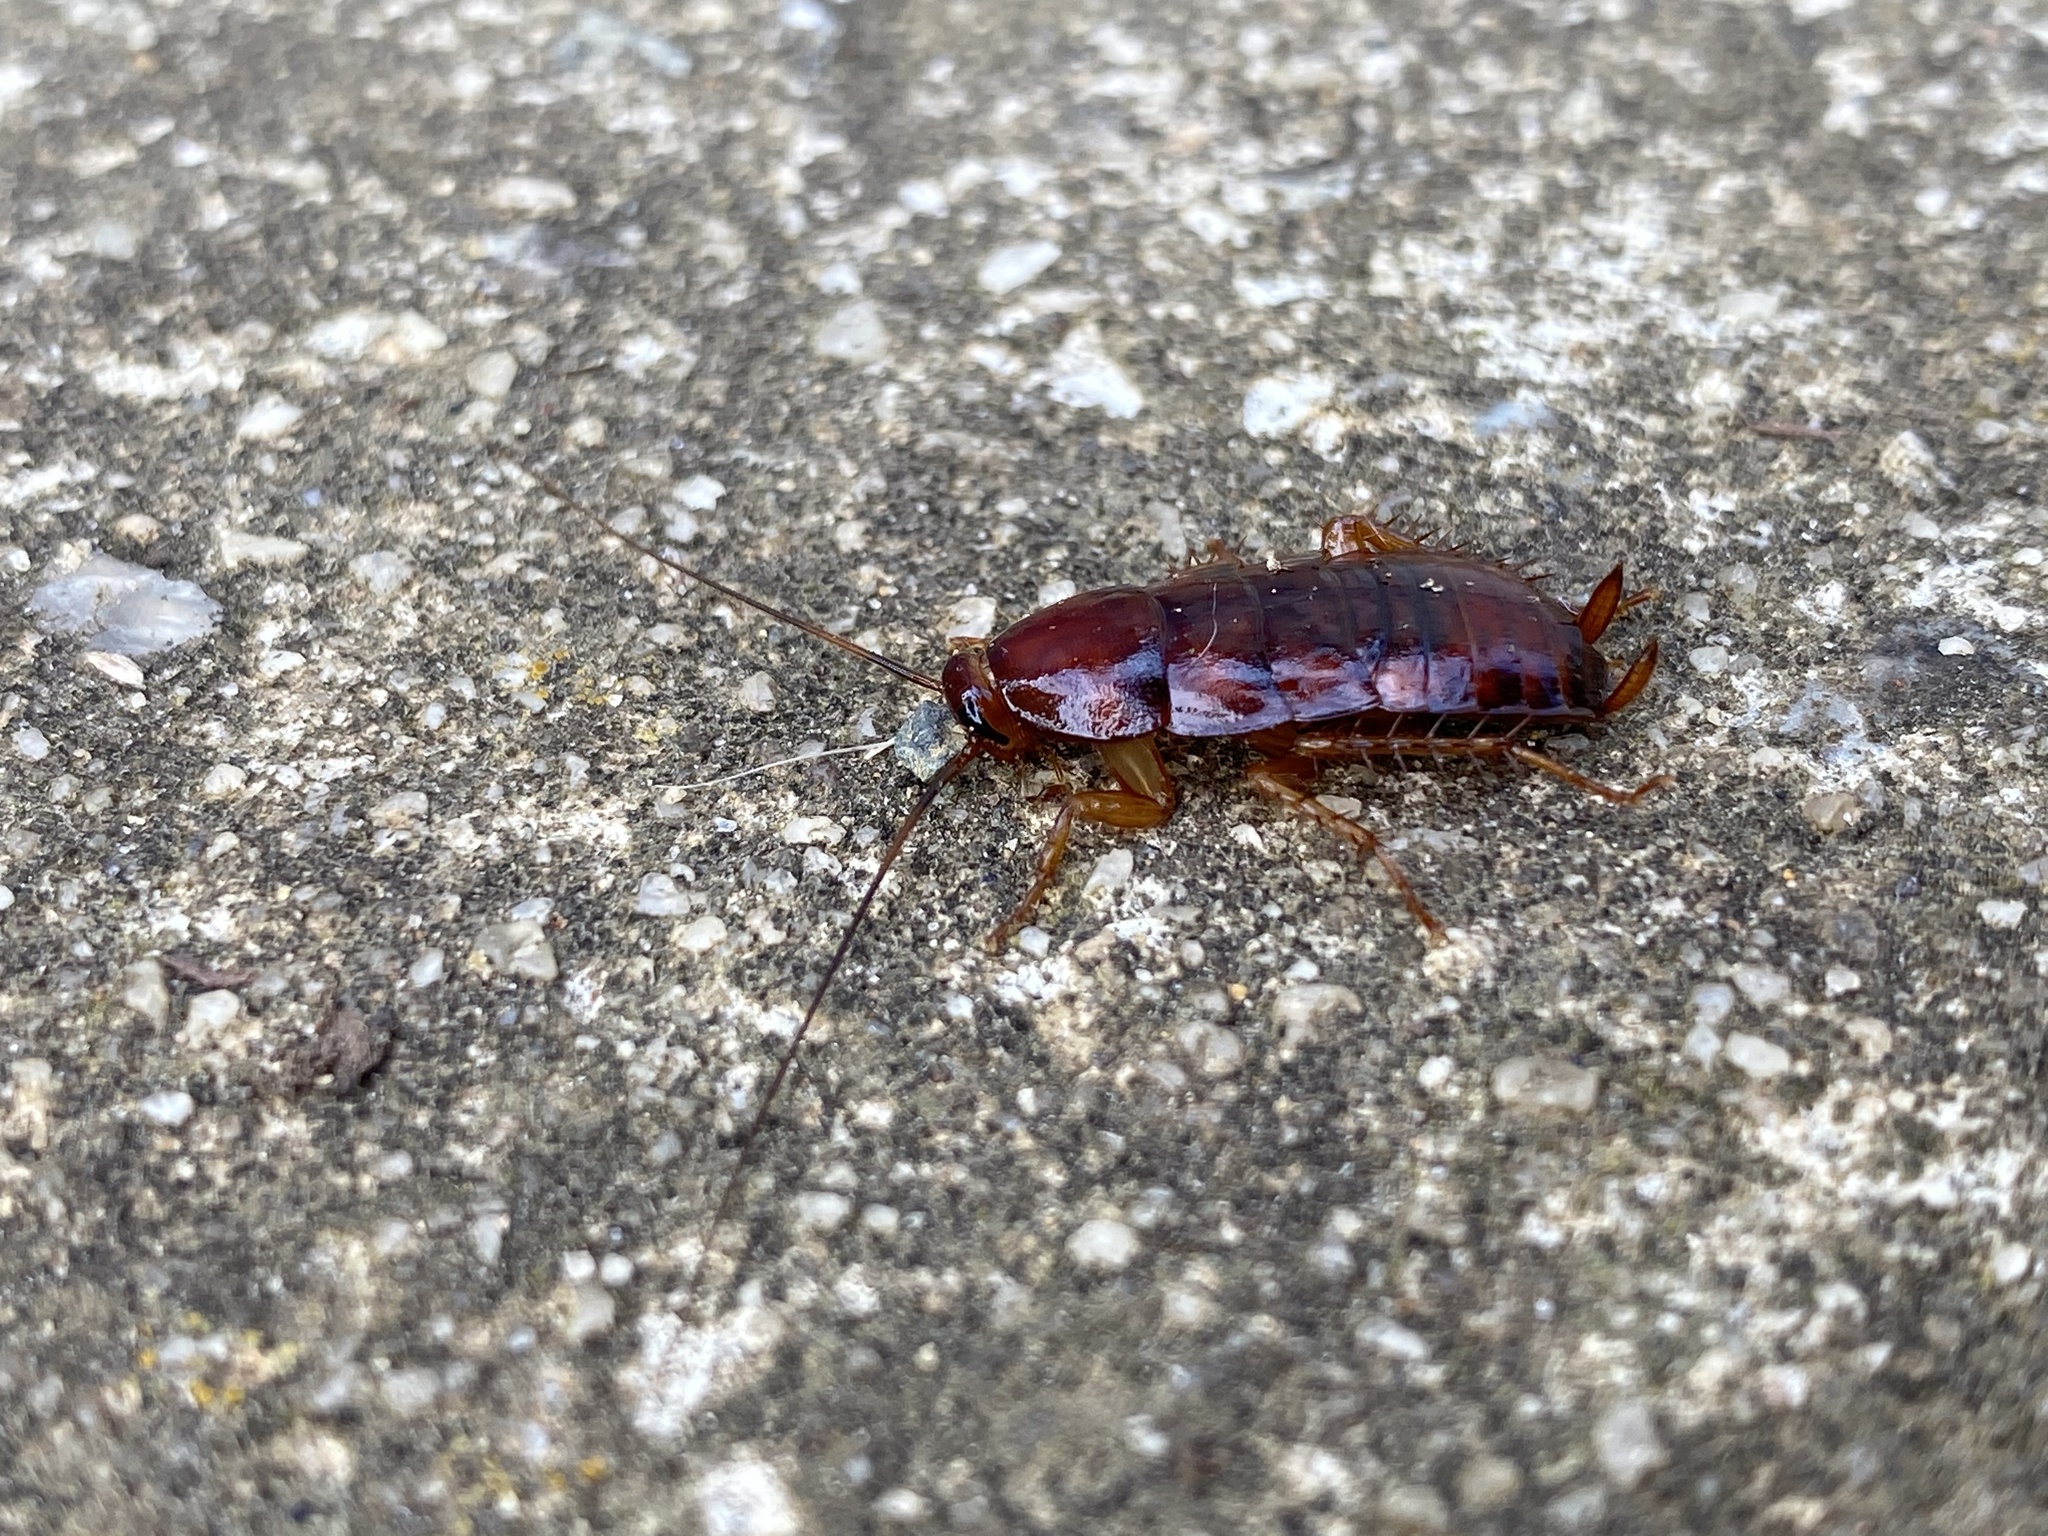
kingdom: Animalia
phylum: Arthropoda
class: Insecta
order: Blattodea
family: Blattidae
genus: Periplaneta
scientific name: Periplaneta fuliginosa
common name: Smokeybrown cockroad
